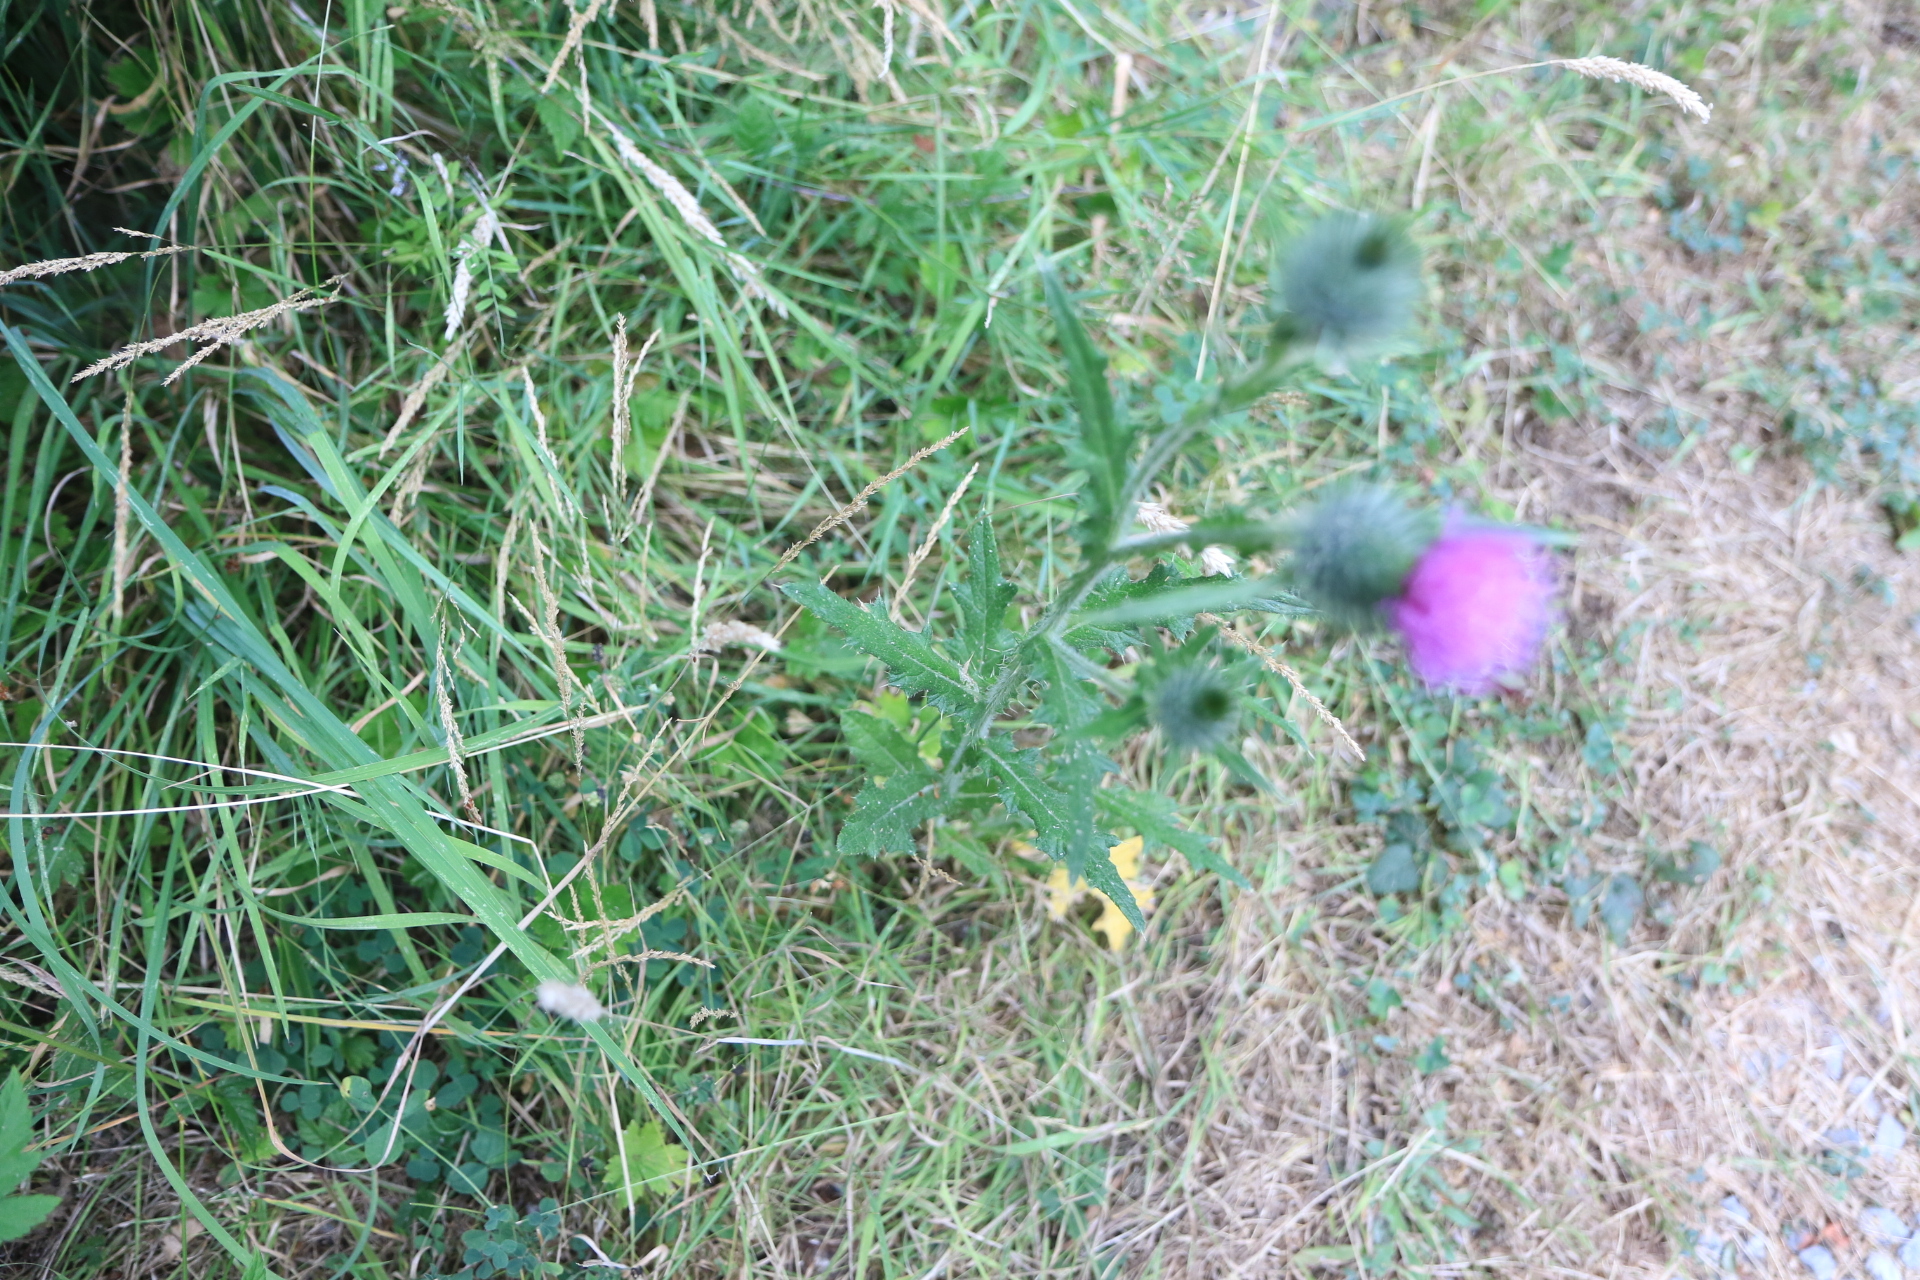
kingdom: Plantae
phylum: Tracheophyta
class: Magnoliopsida
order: Asterales
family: Asteraceae
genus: Cirsium
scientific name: Cirsium vulgare
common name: Bull thistle
